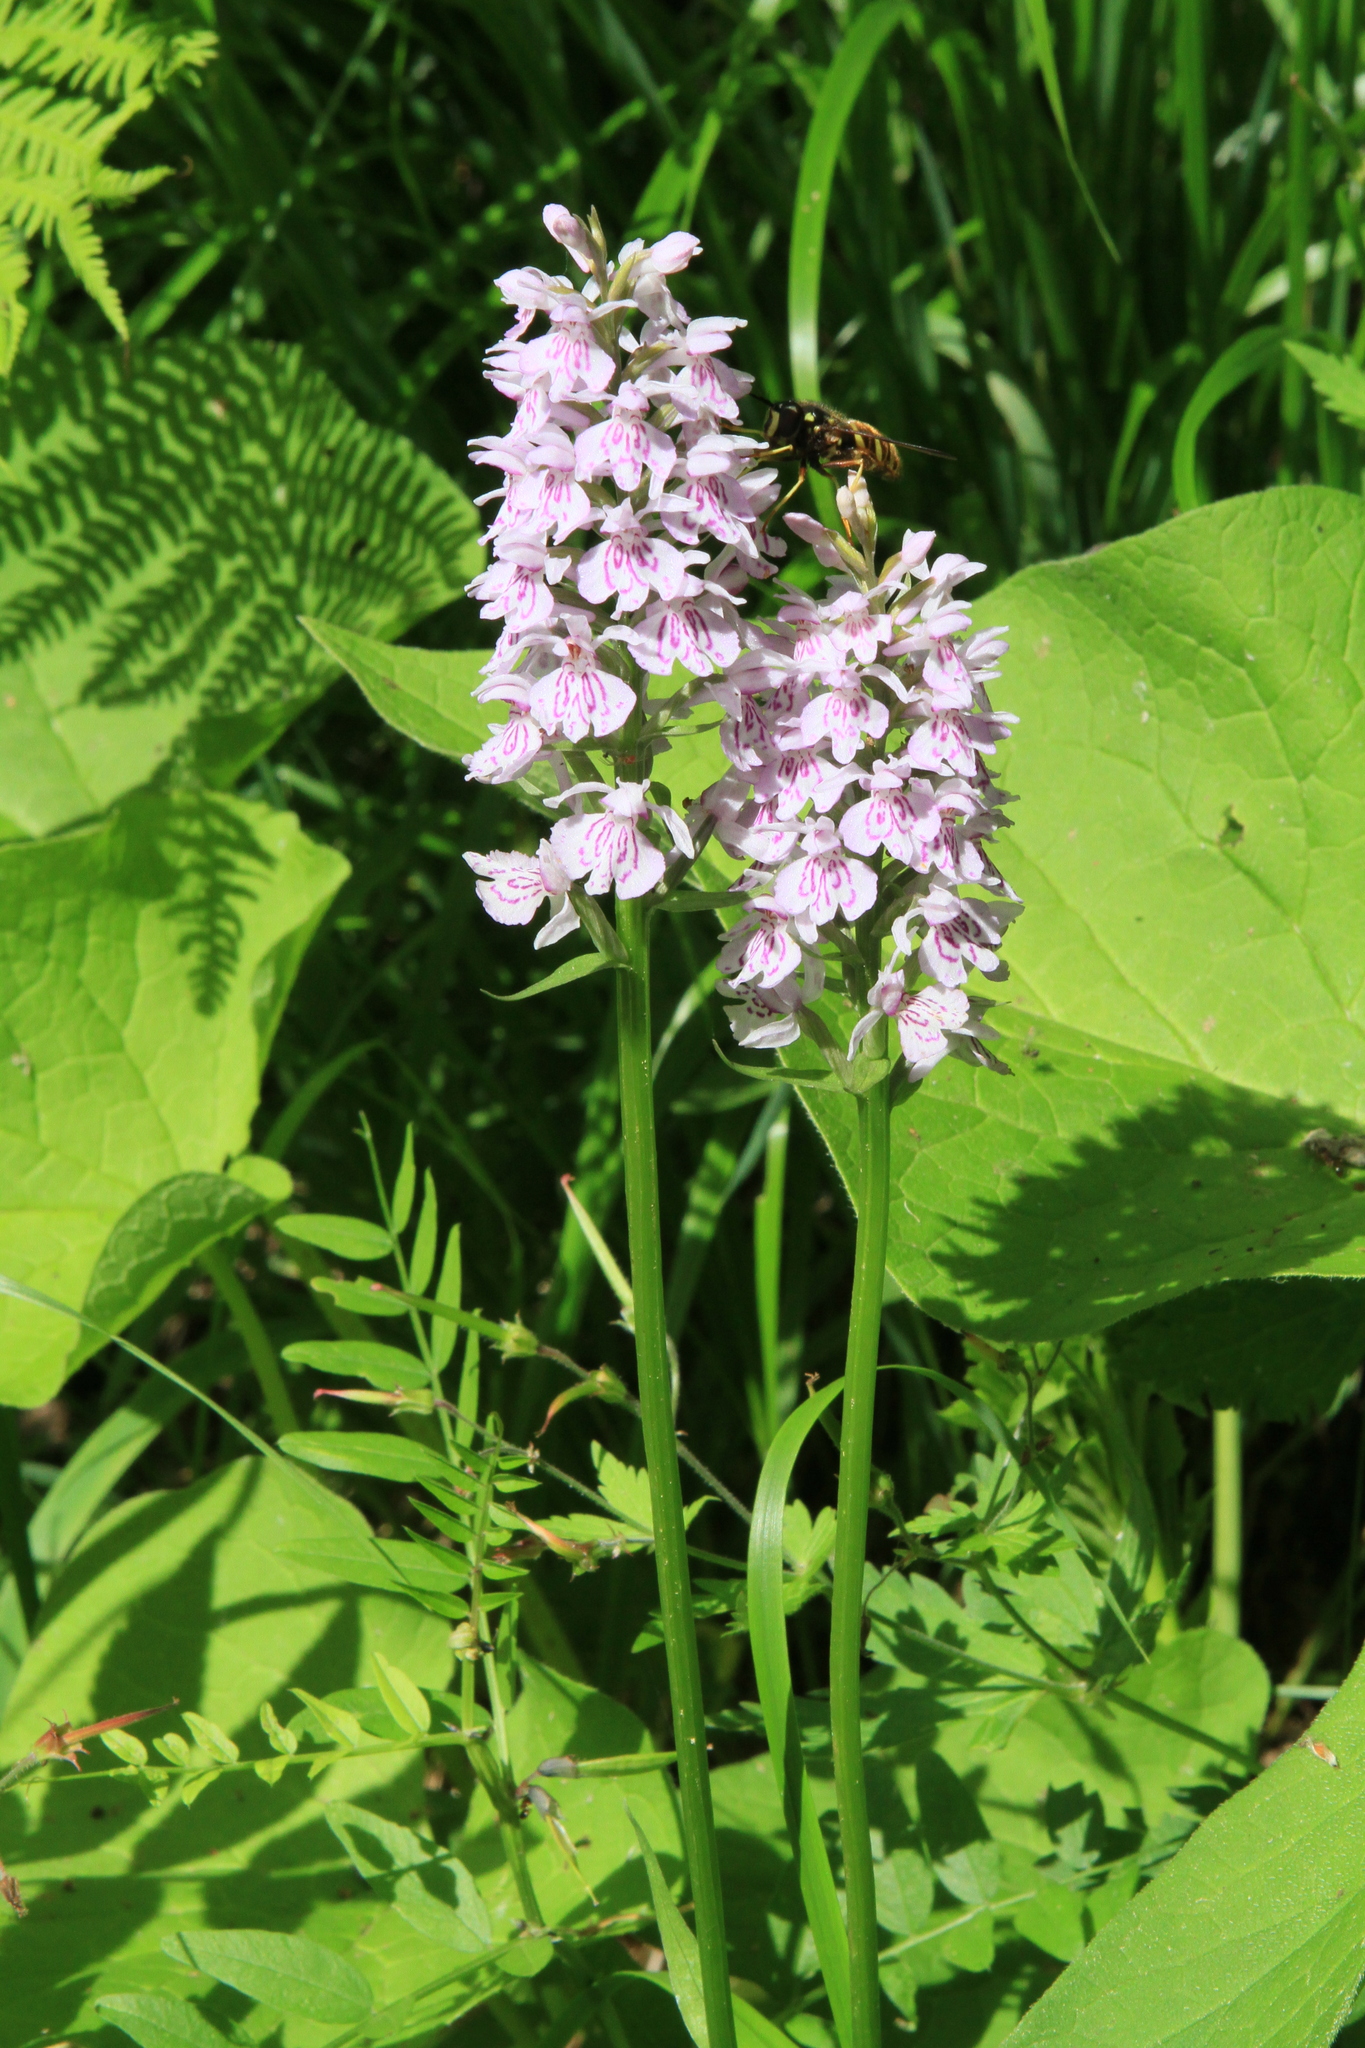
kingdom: Plantae
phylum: Tracheophyta
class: Liliopsida
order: Asparagales
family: Orchidaceae
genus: Dactylorhiza
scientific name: Dactylorhiza maculata
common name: Heath spotted-orchid
